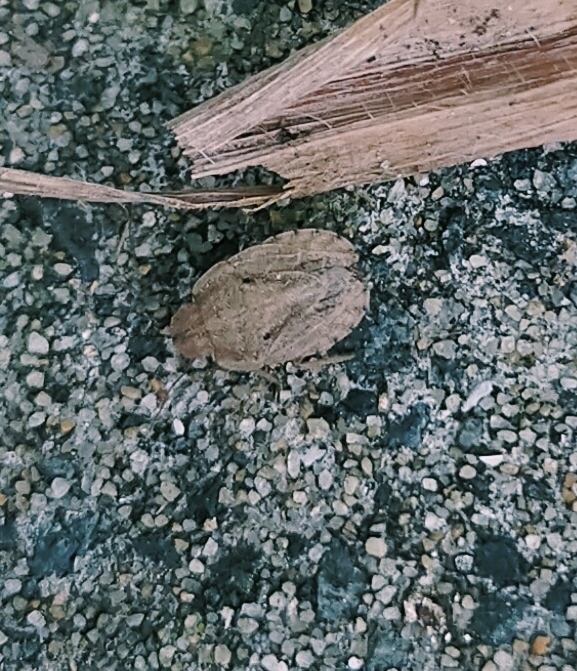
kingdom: Animalia
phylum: Arthropoda
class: Insecta
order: Hemiptera
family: Pentatomidae
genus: Sciocoris
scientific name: Sciocoris sulcatus
